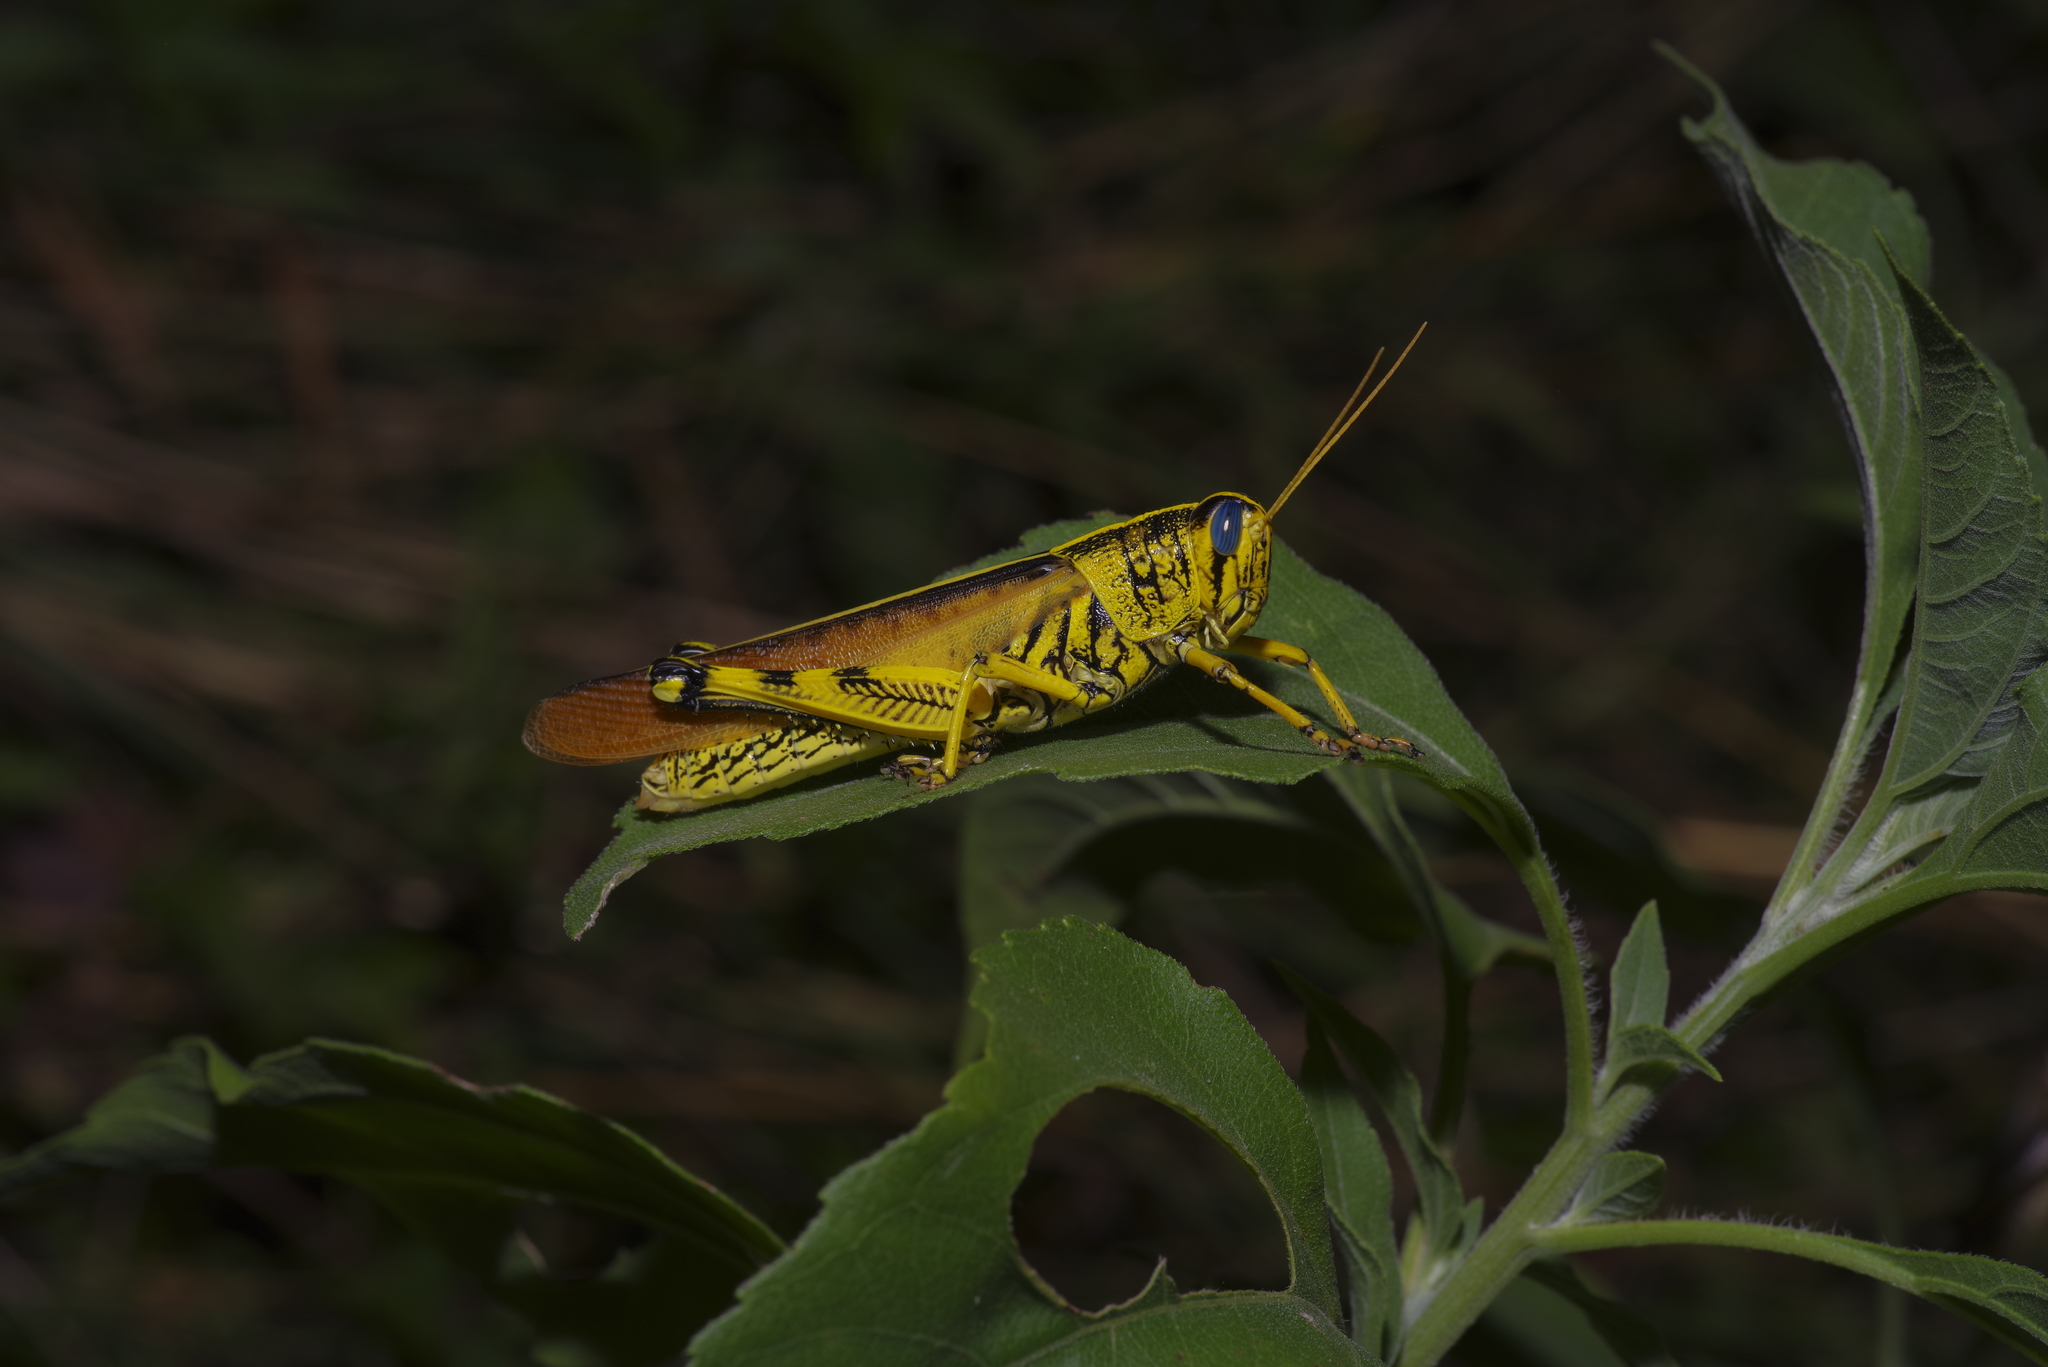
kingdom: Animalia
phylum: Arthropoda
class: Insecta
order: Orthoptera
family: Acrididae
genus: Schistocerca
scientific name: Schistocerca lineata
